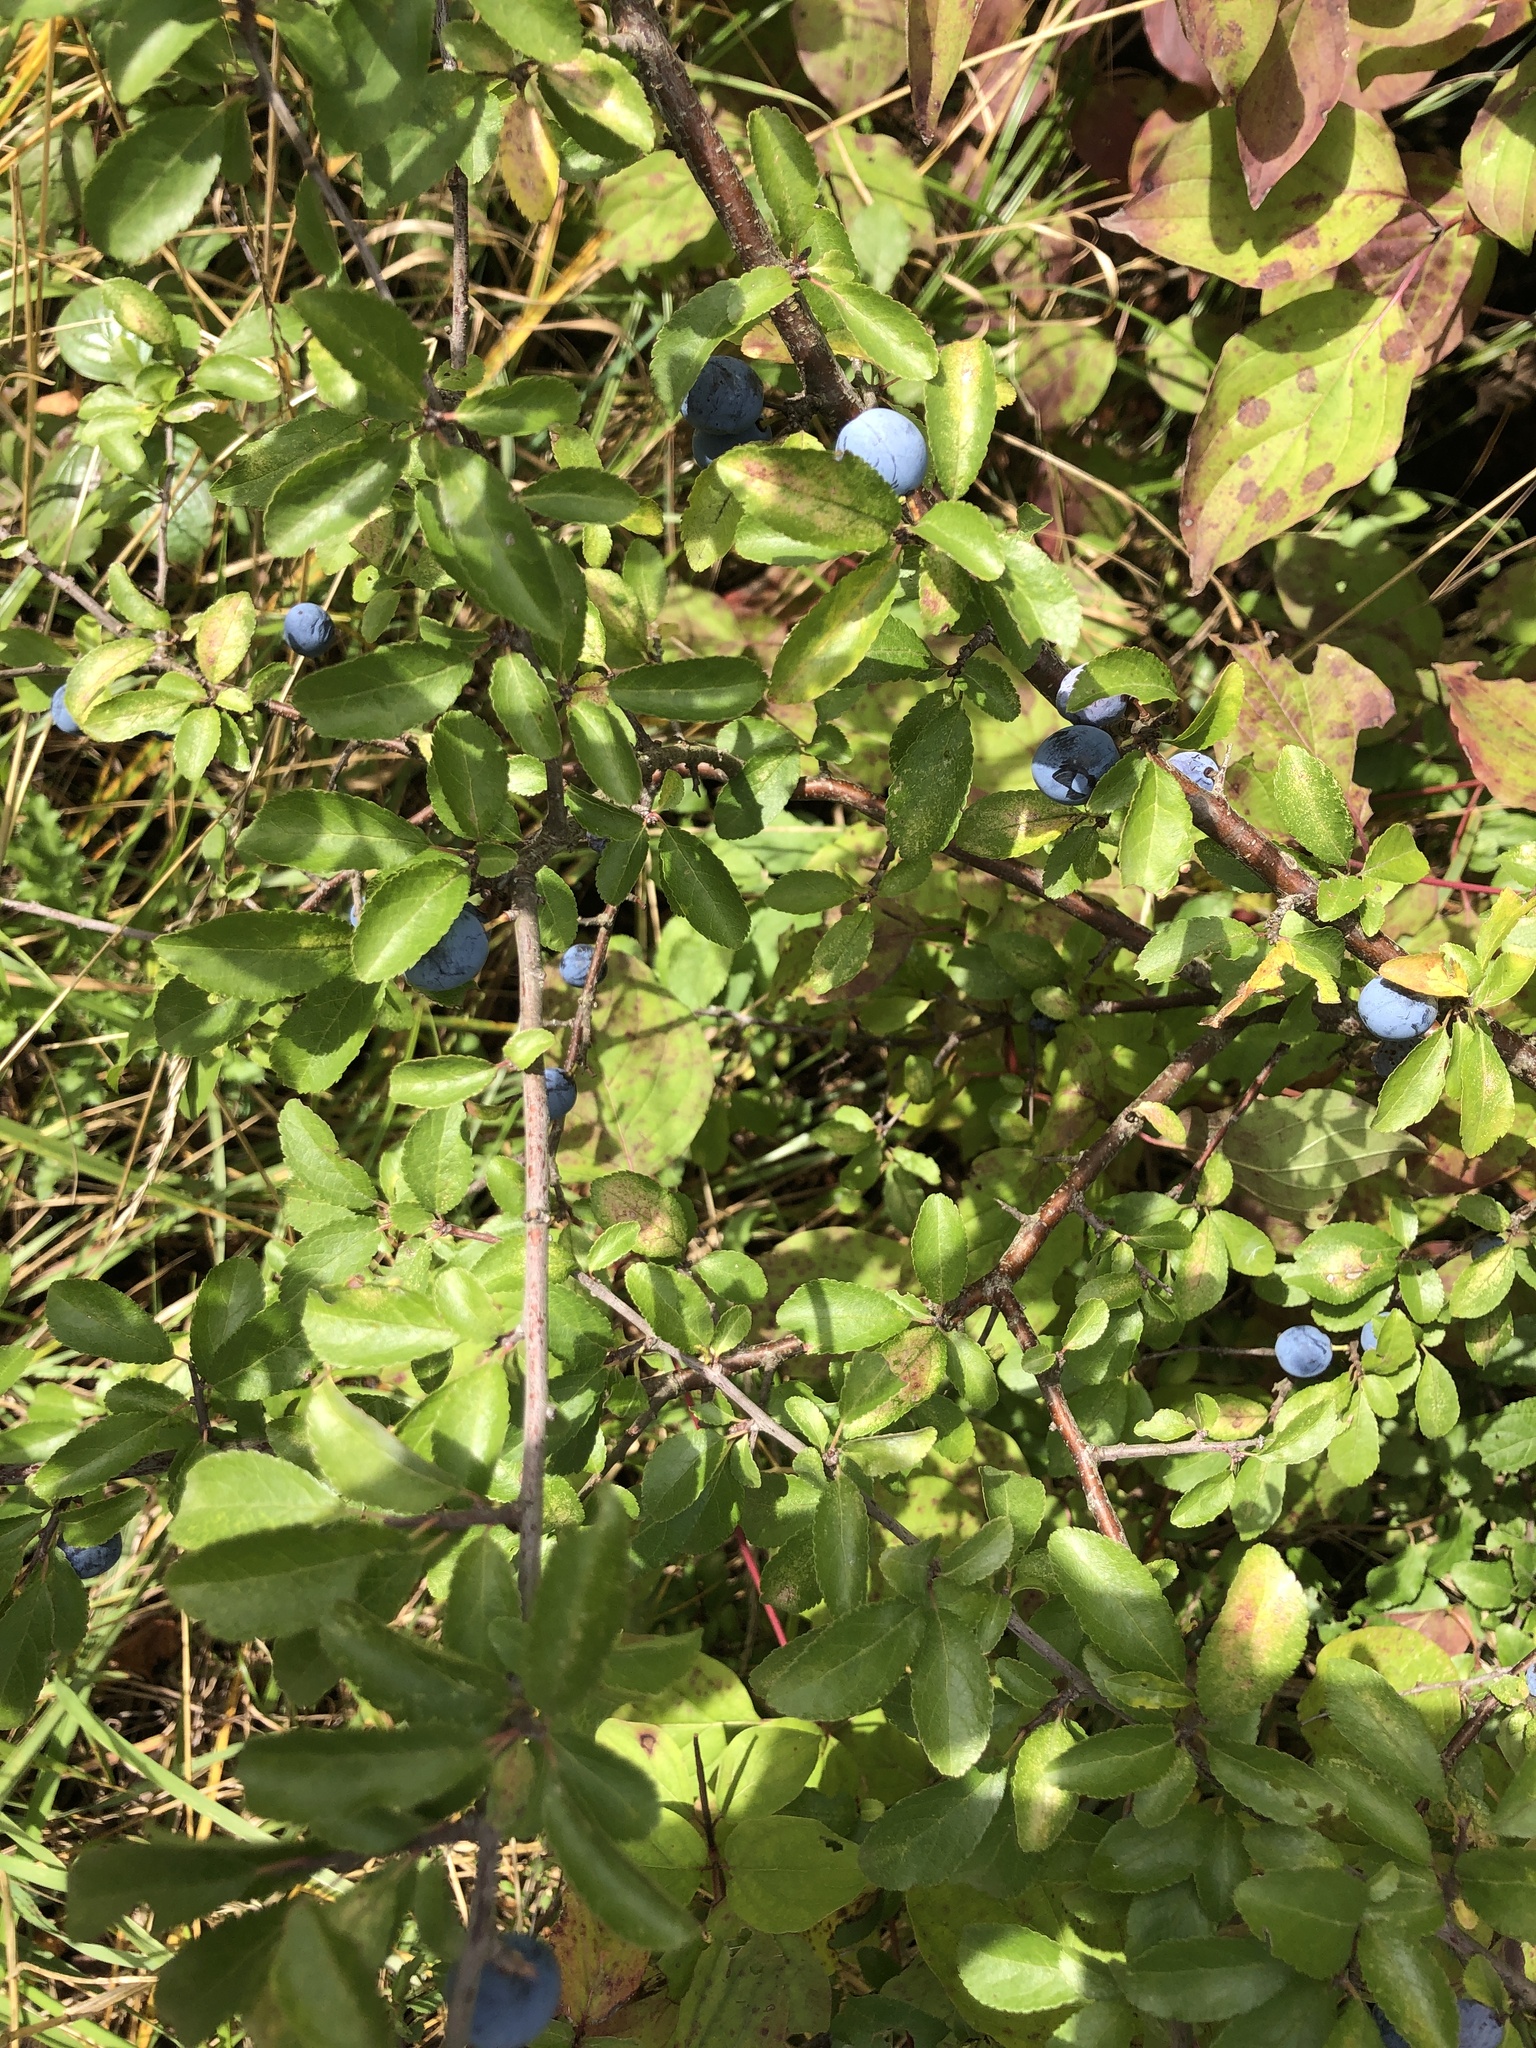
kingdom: Plantae
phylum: Tracheophyta
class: Magnoliopsida
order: Rosales
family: Rosaceae
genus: Prunus
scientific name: Prunus spinosa
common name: Blackthorn
